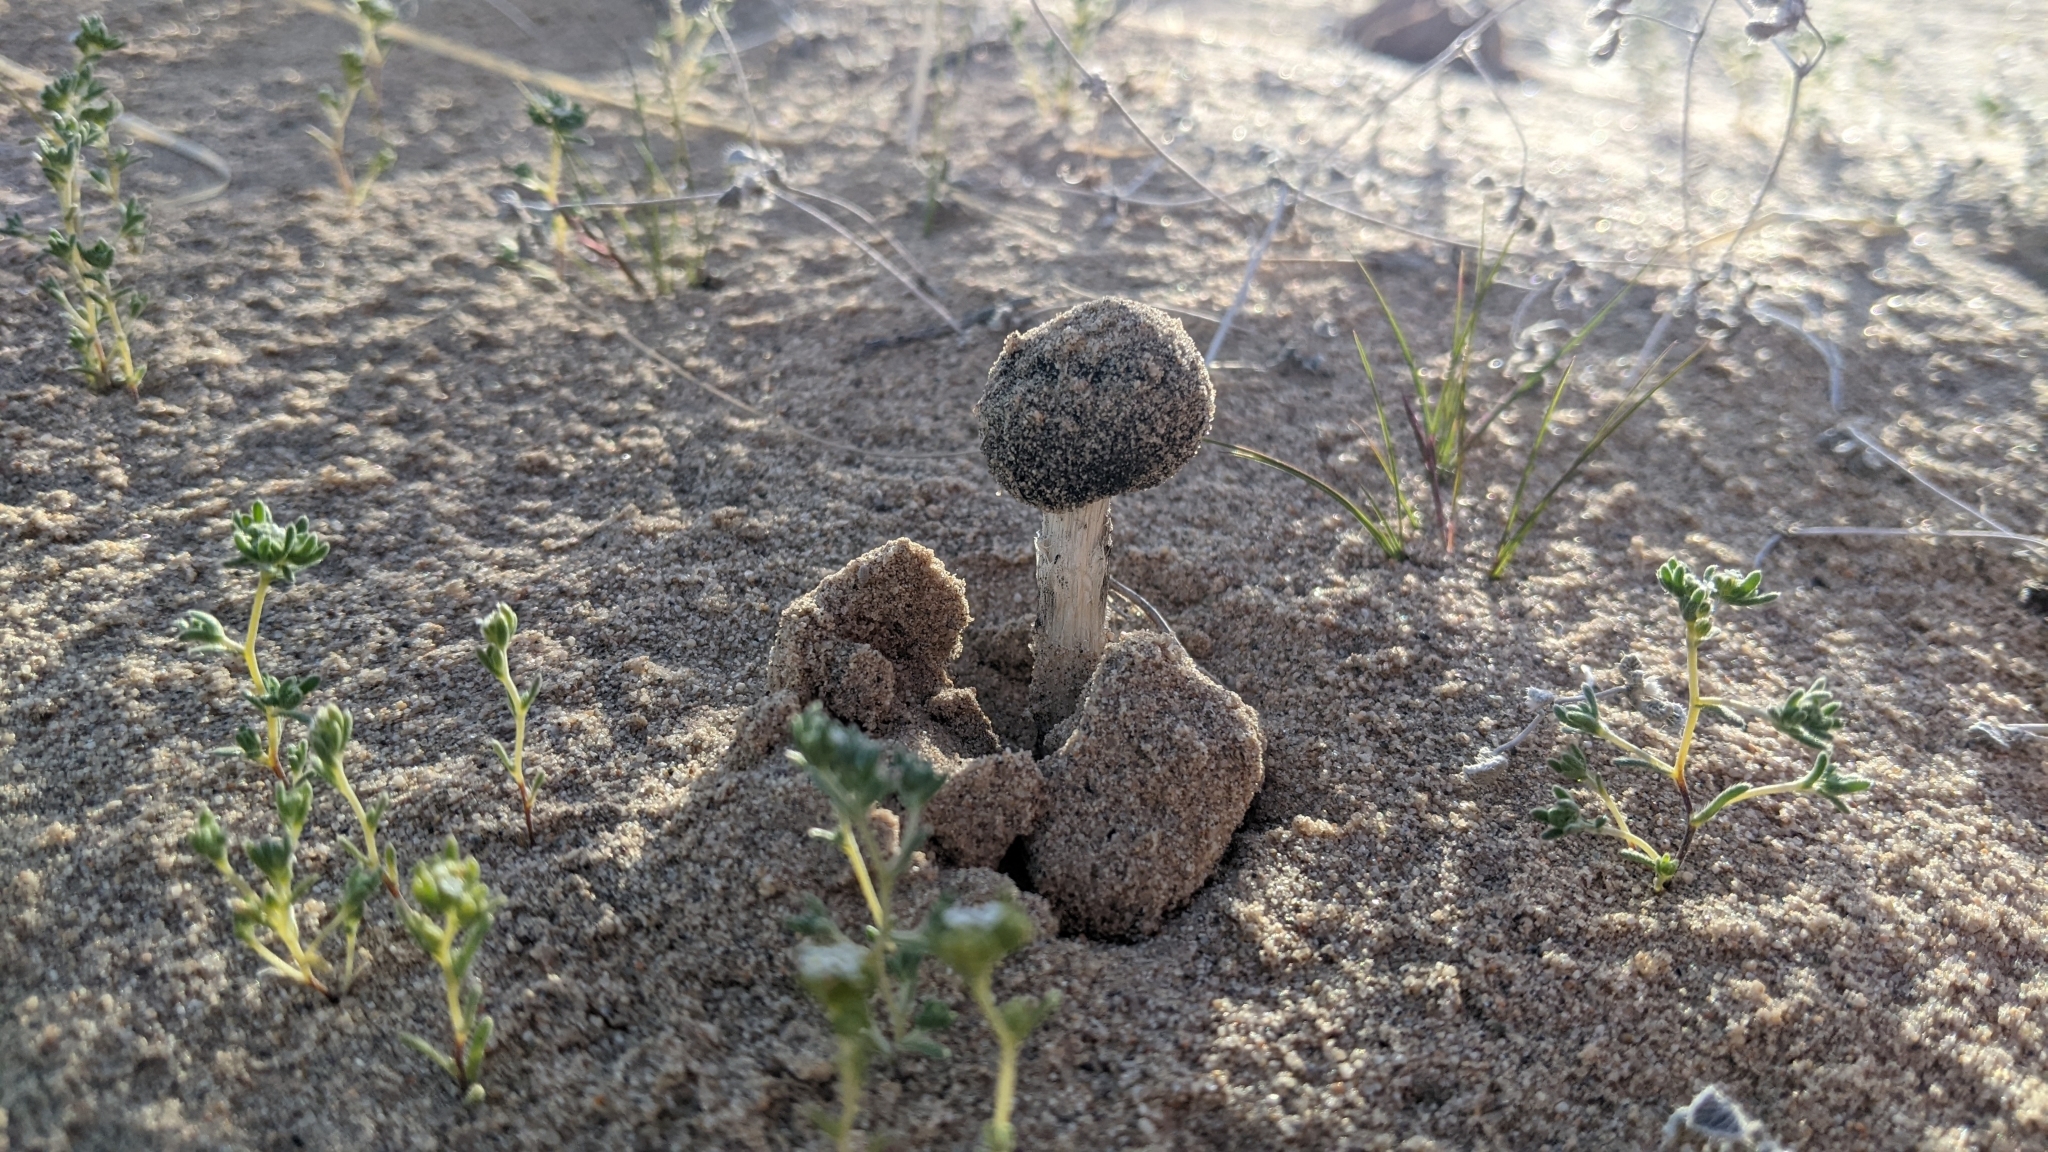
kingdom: Fungi
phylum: Basidiomycota
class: Agaricomycetes
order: Agaricales
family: Agaricaceae
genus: Montagnea
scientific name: Montagnea arenaria
